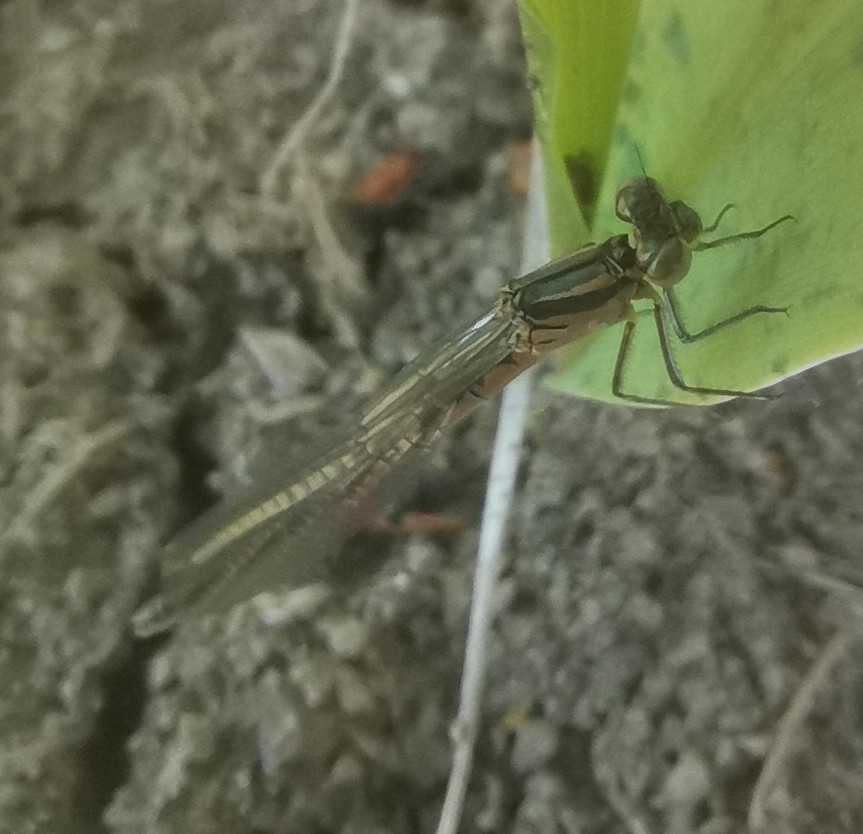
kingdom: Animalia
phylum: Arthropoda
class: Insecta
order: Odonata
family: Coenagrionidae
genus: Coenagrion
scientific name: Coenagrion pulchellum
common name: Variable bluet
